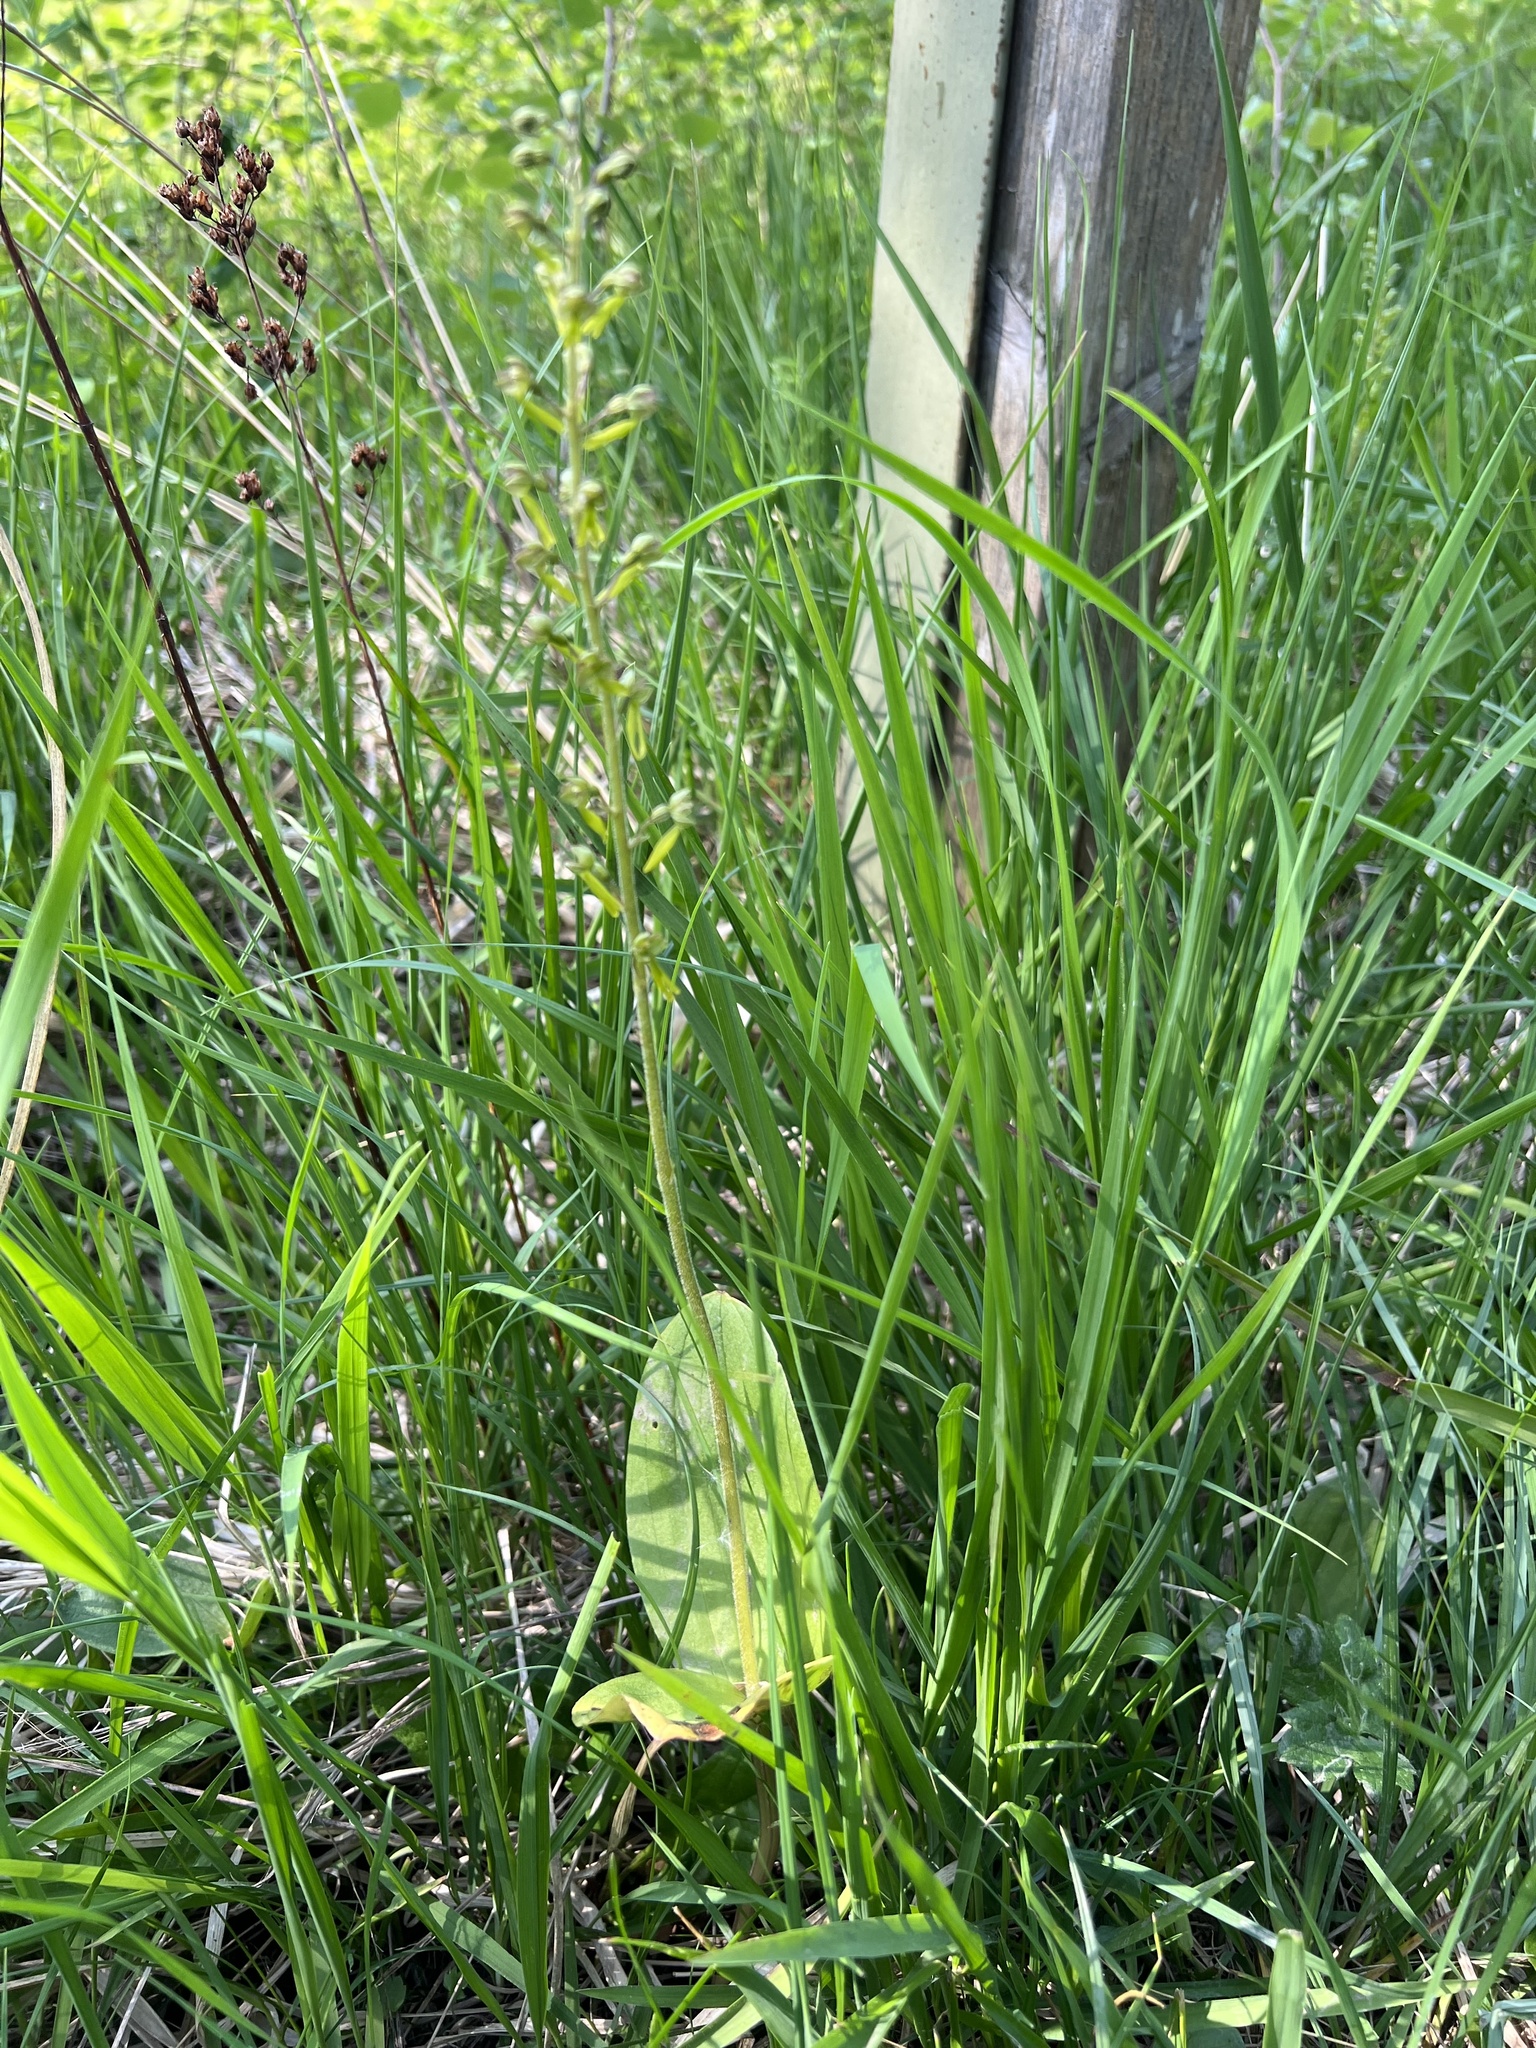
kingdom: Plantae
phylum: Tracheophyta
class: Liliopsida
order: Asparagales
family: Orchidaceae
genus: Neottia
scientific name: Neottia ovata
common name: Common twayblade
